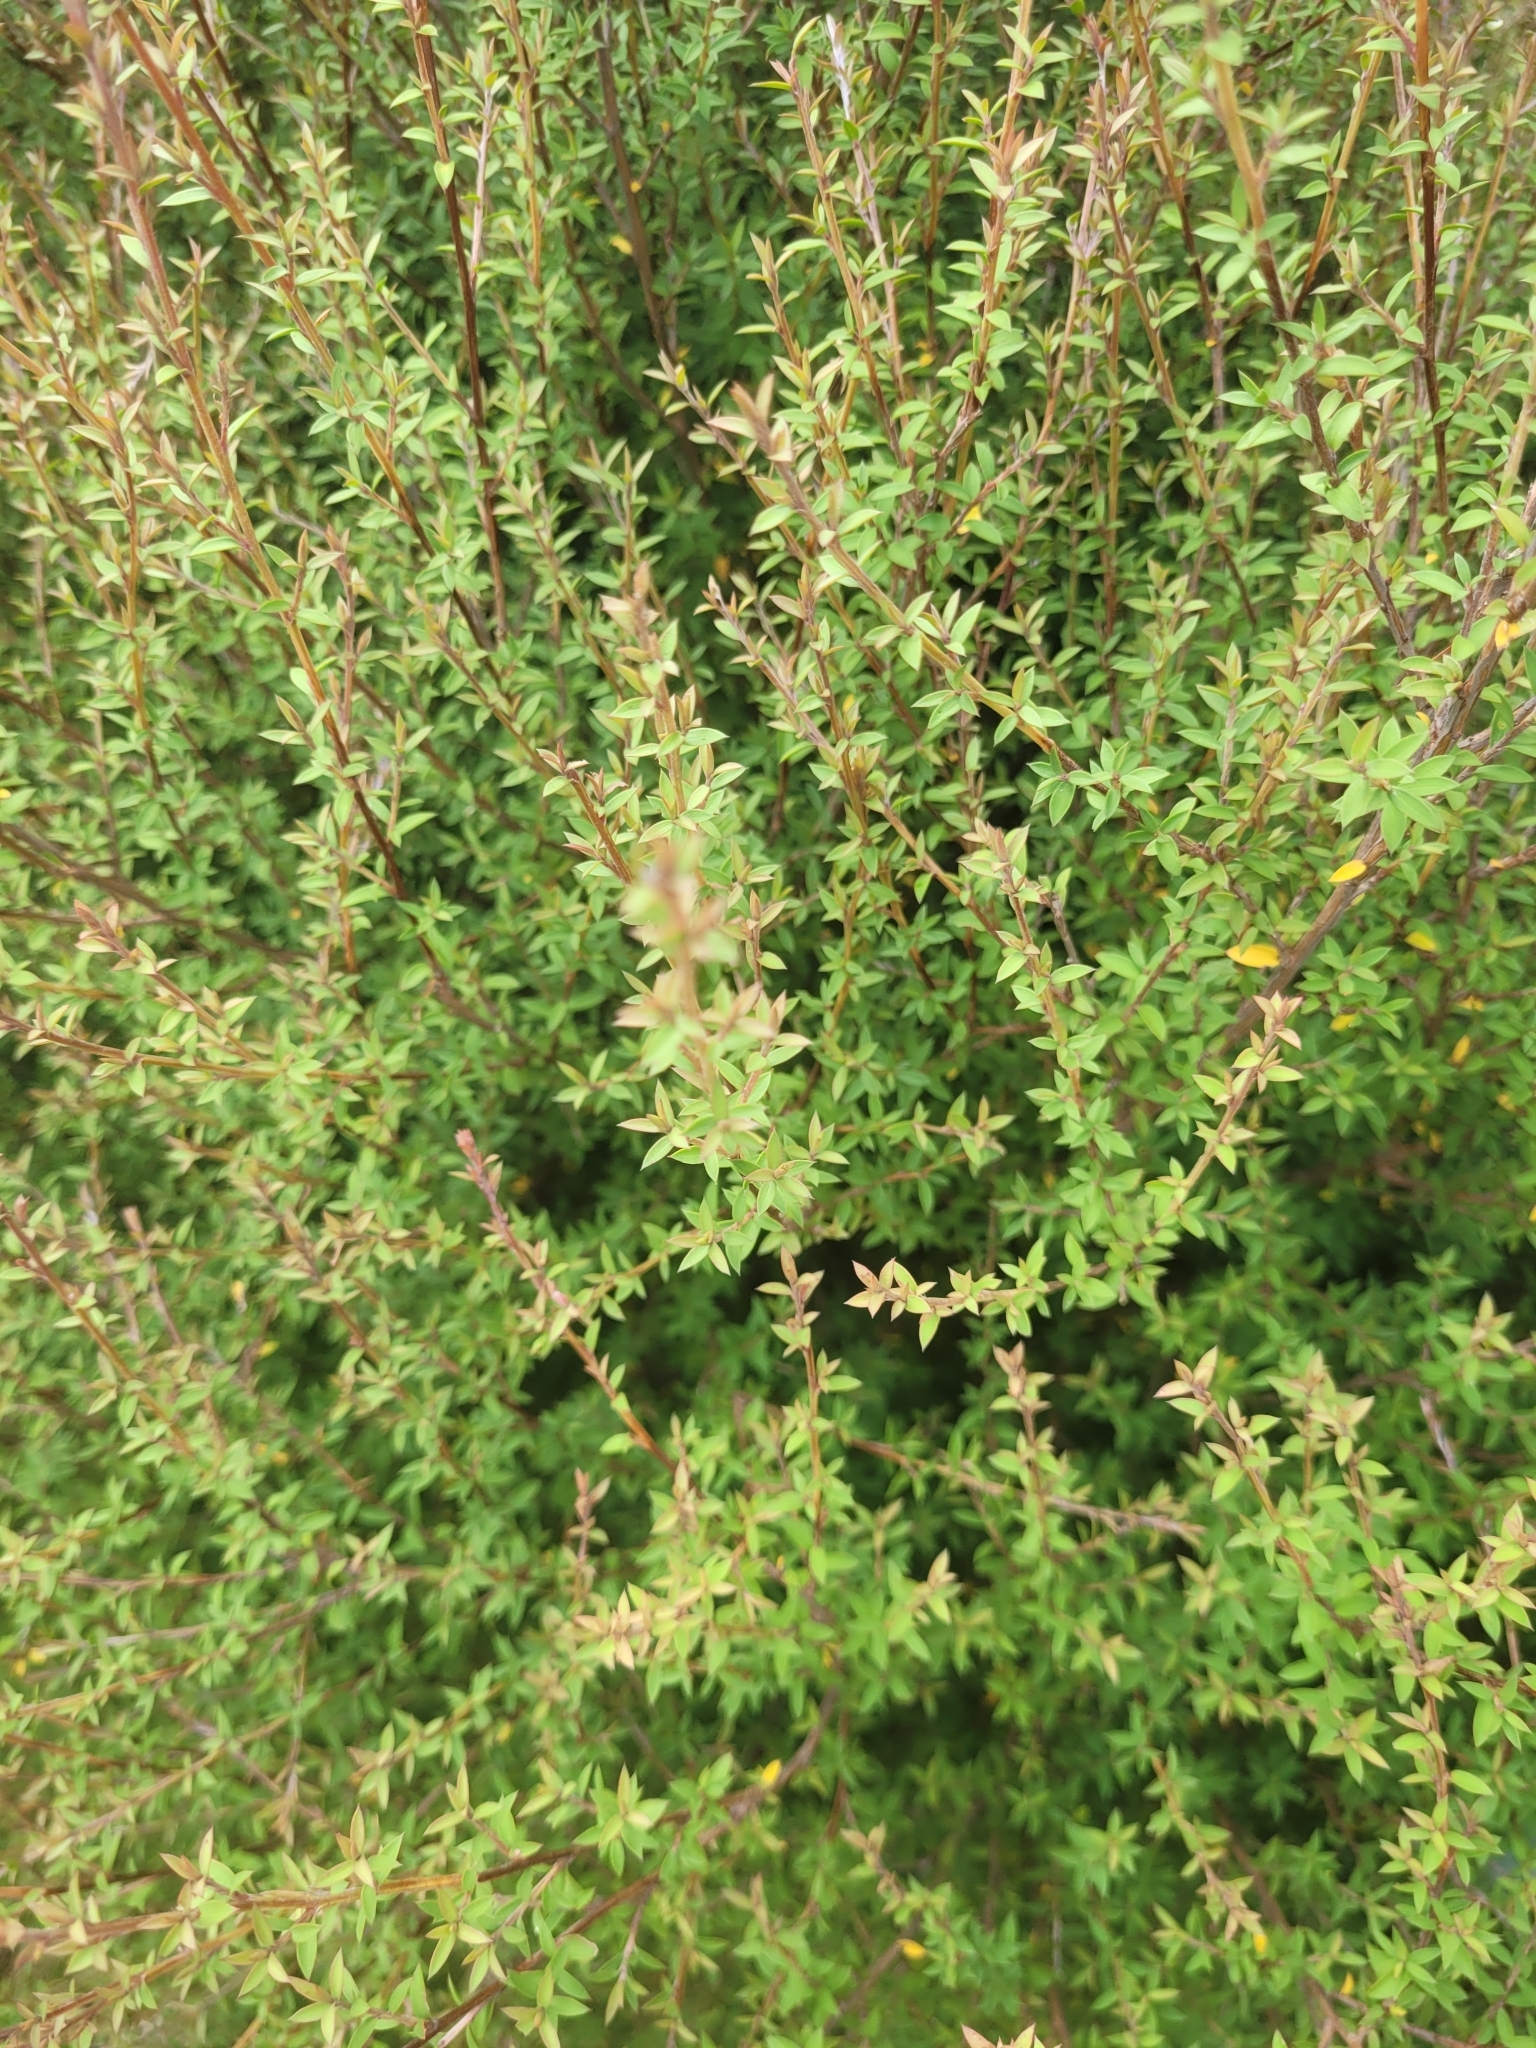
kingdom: Plantae
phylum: Tracheophyta
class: Magnoliopsida
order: Myrtales
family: Myrtaceae
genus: Leptospermum
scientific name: Leptospermum scoparium
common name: Broom tea-tree
